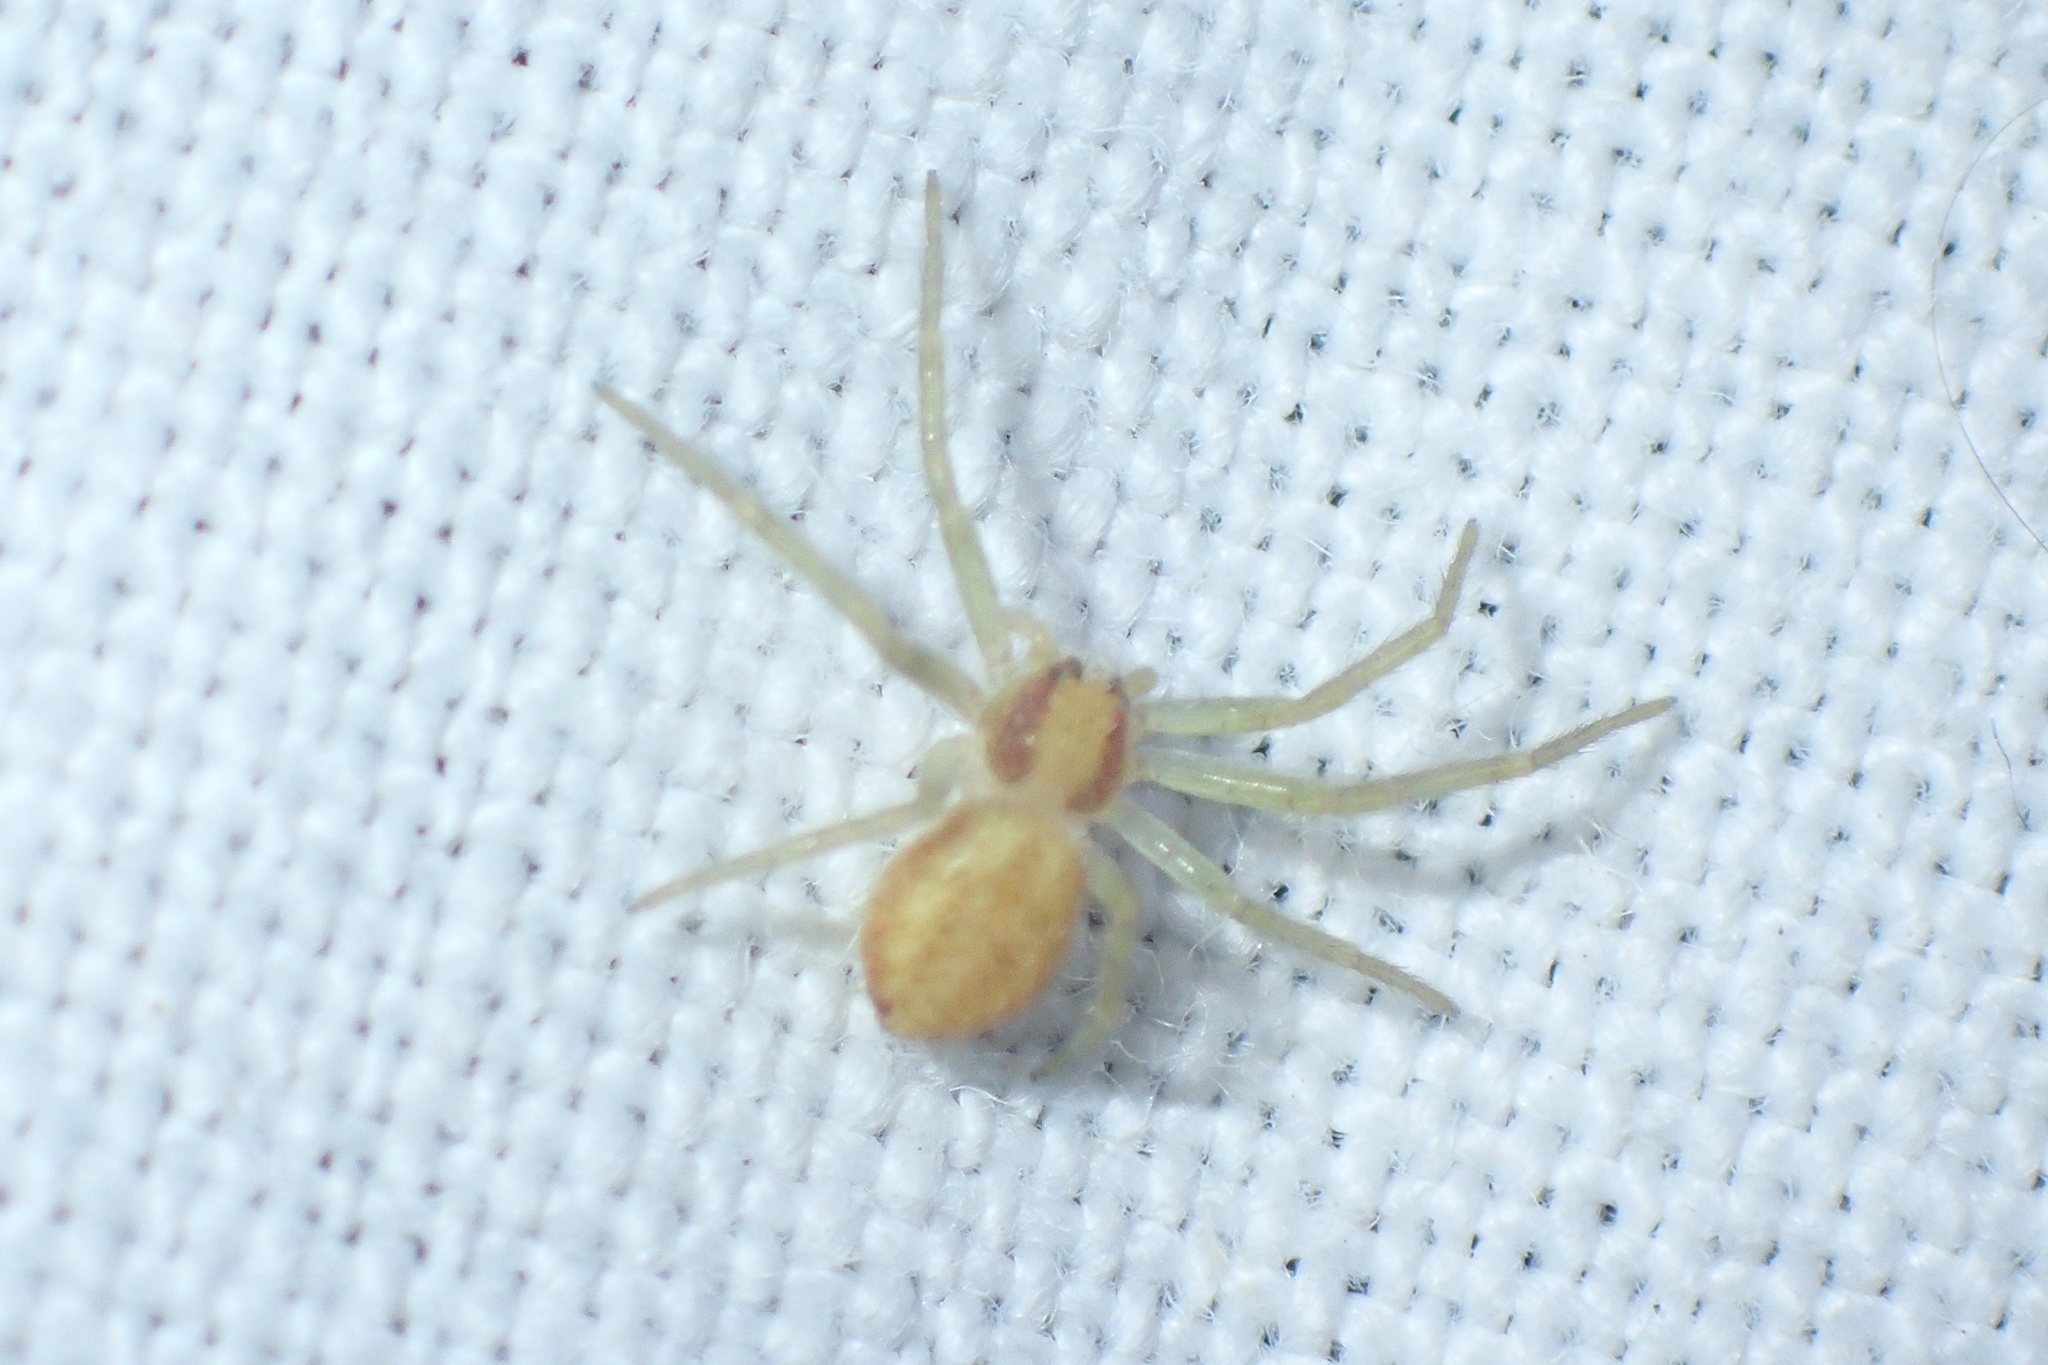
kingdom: Animalia
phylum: Arthropoda
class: Arachnida
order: Araneae
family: Philodromidae
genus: Philodromus
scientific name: Philodromus
